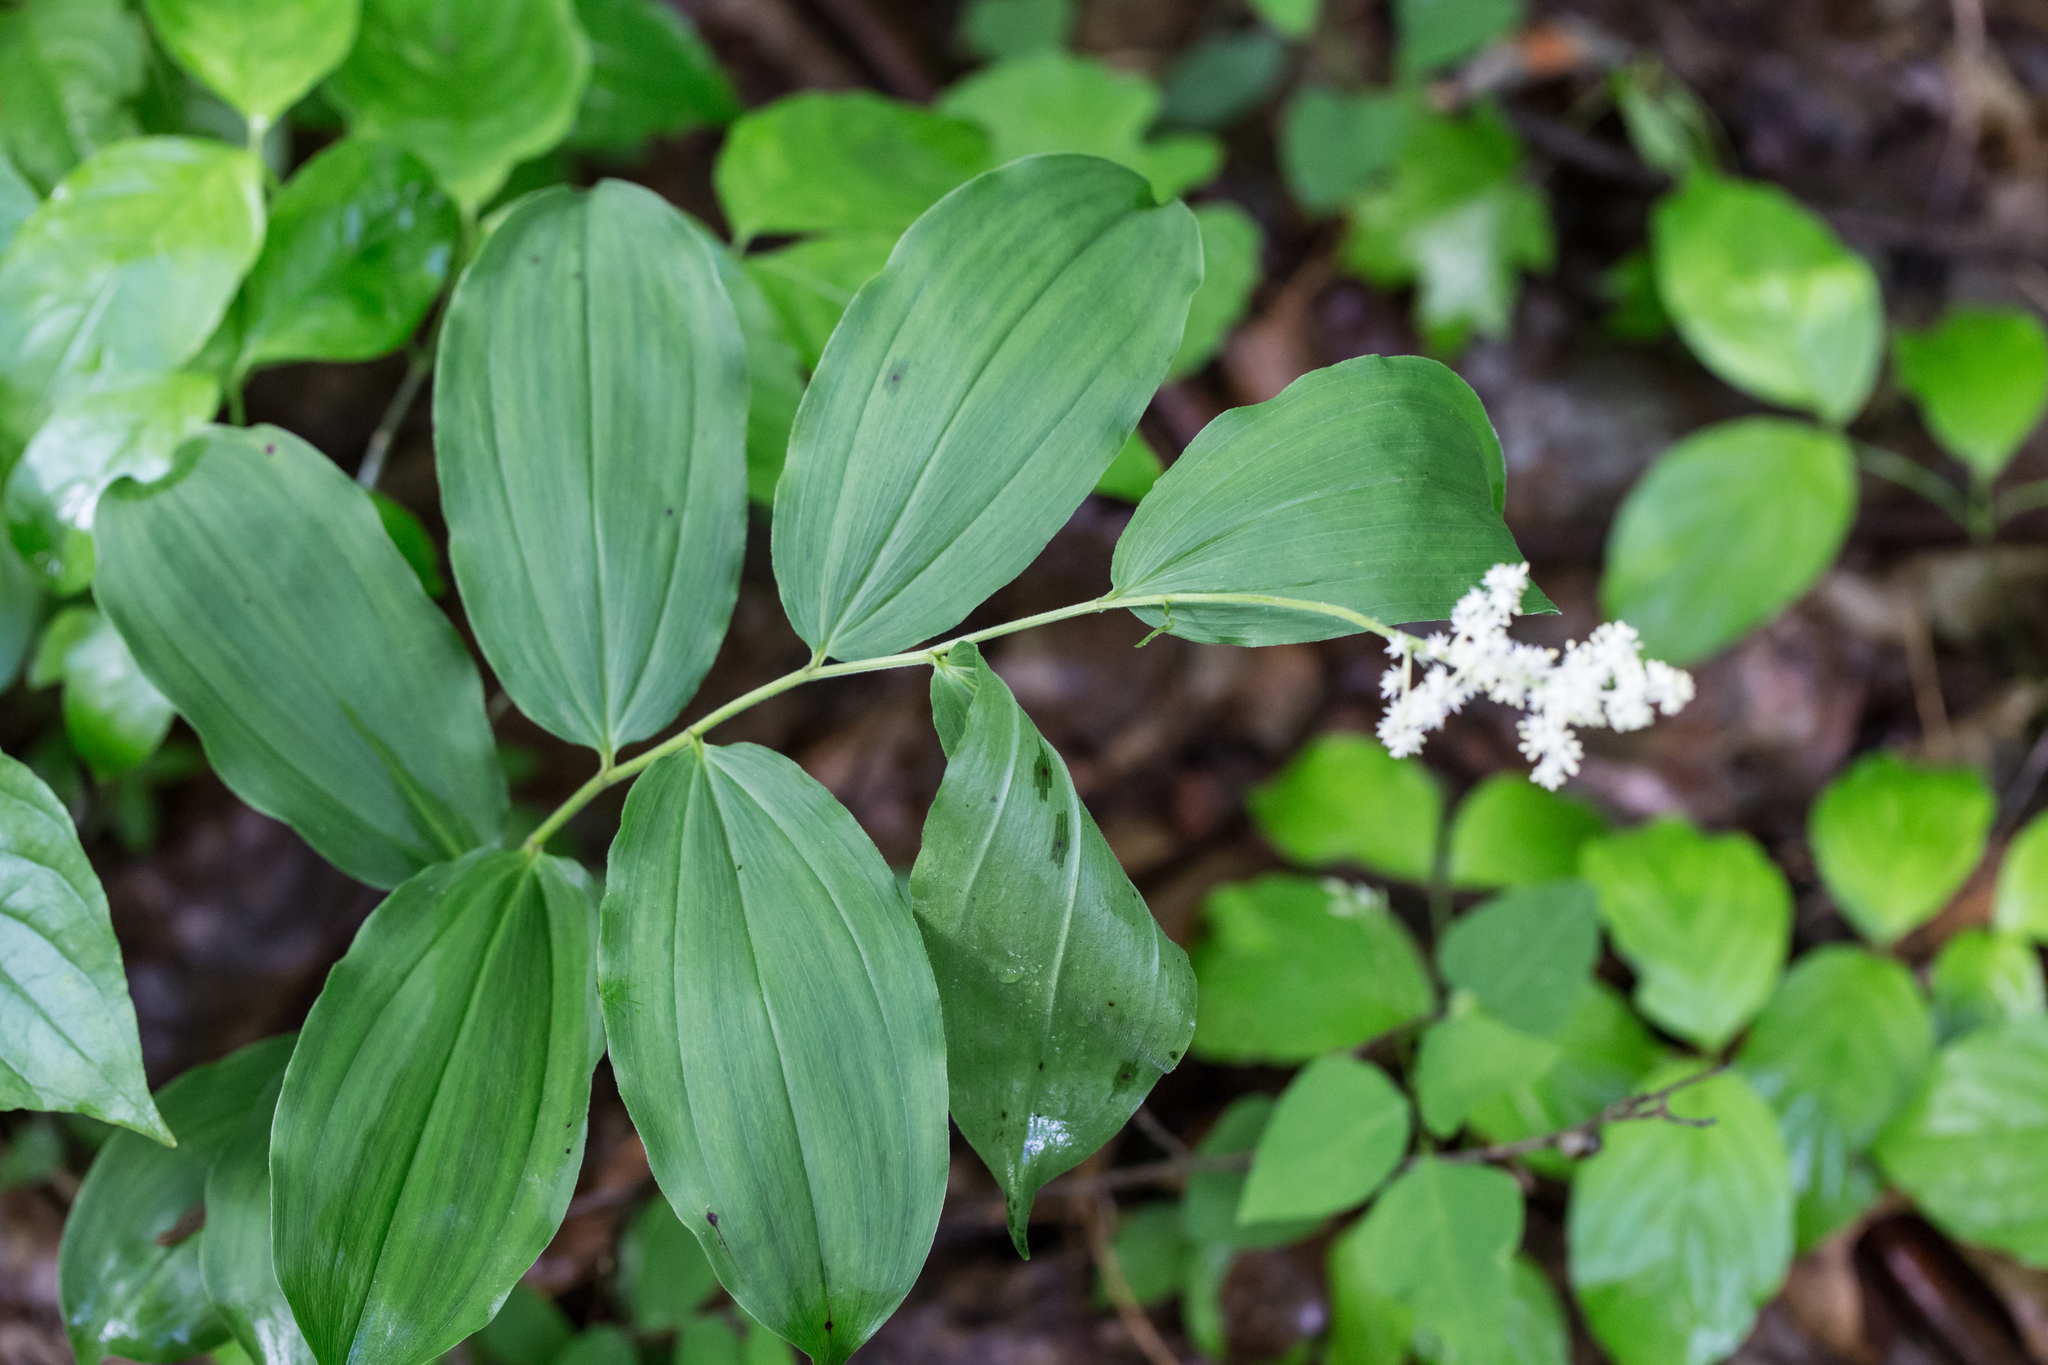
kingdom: Plantae
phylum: Tracheophyta
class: Liliopsida
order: Asparagales
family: Asparagaceae
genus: Maianthemum
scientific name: Maianthemum racemosum
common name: False spikenard
